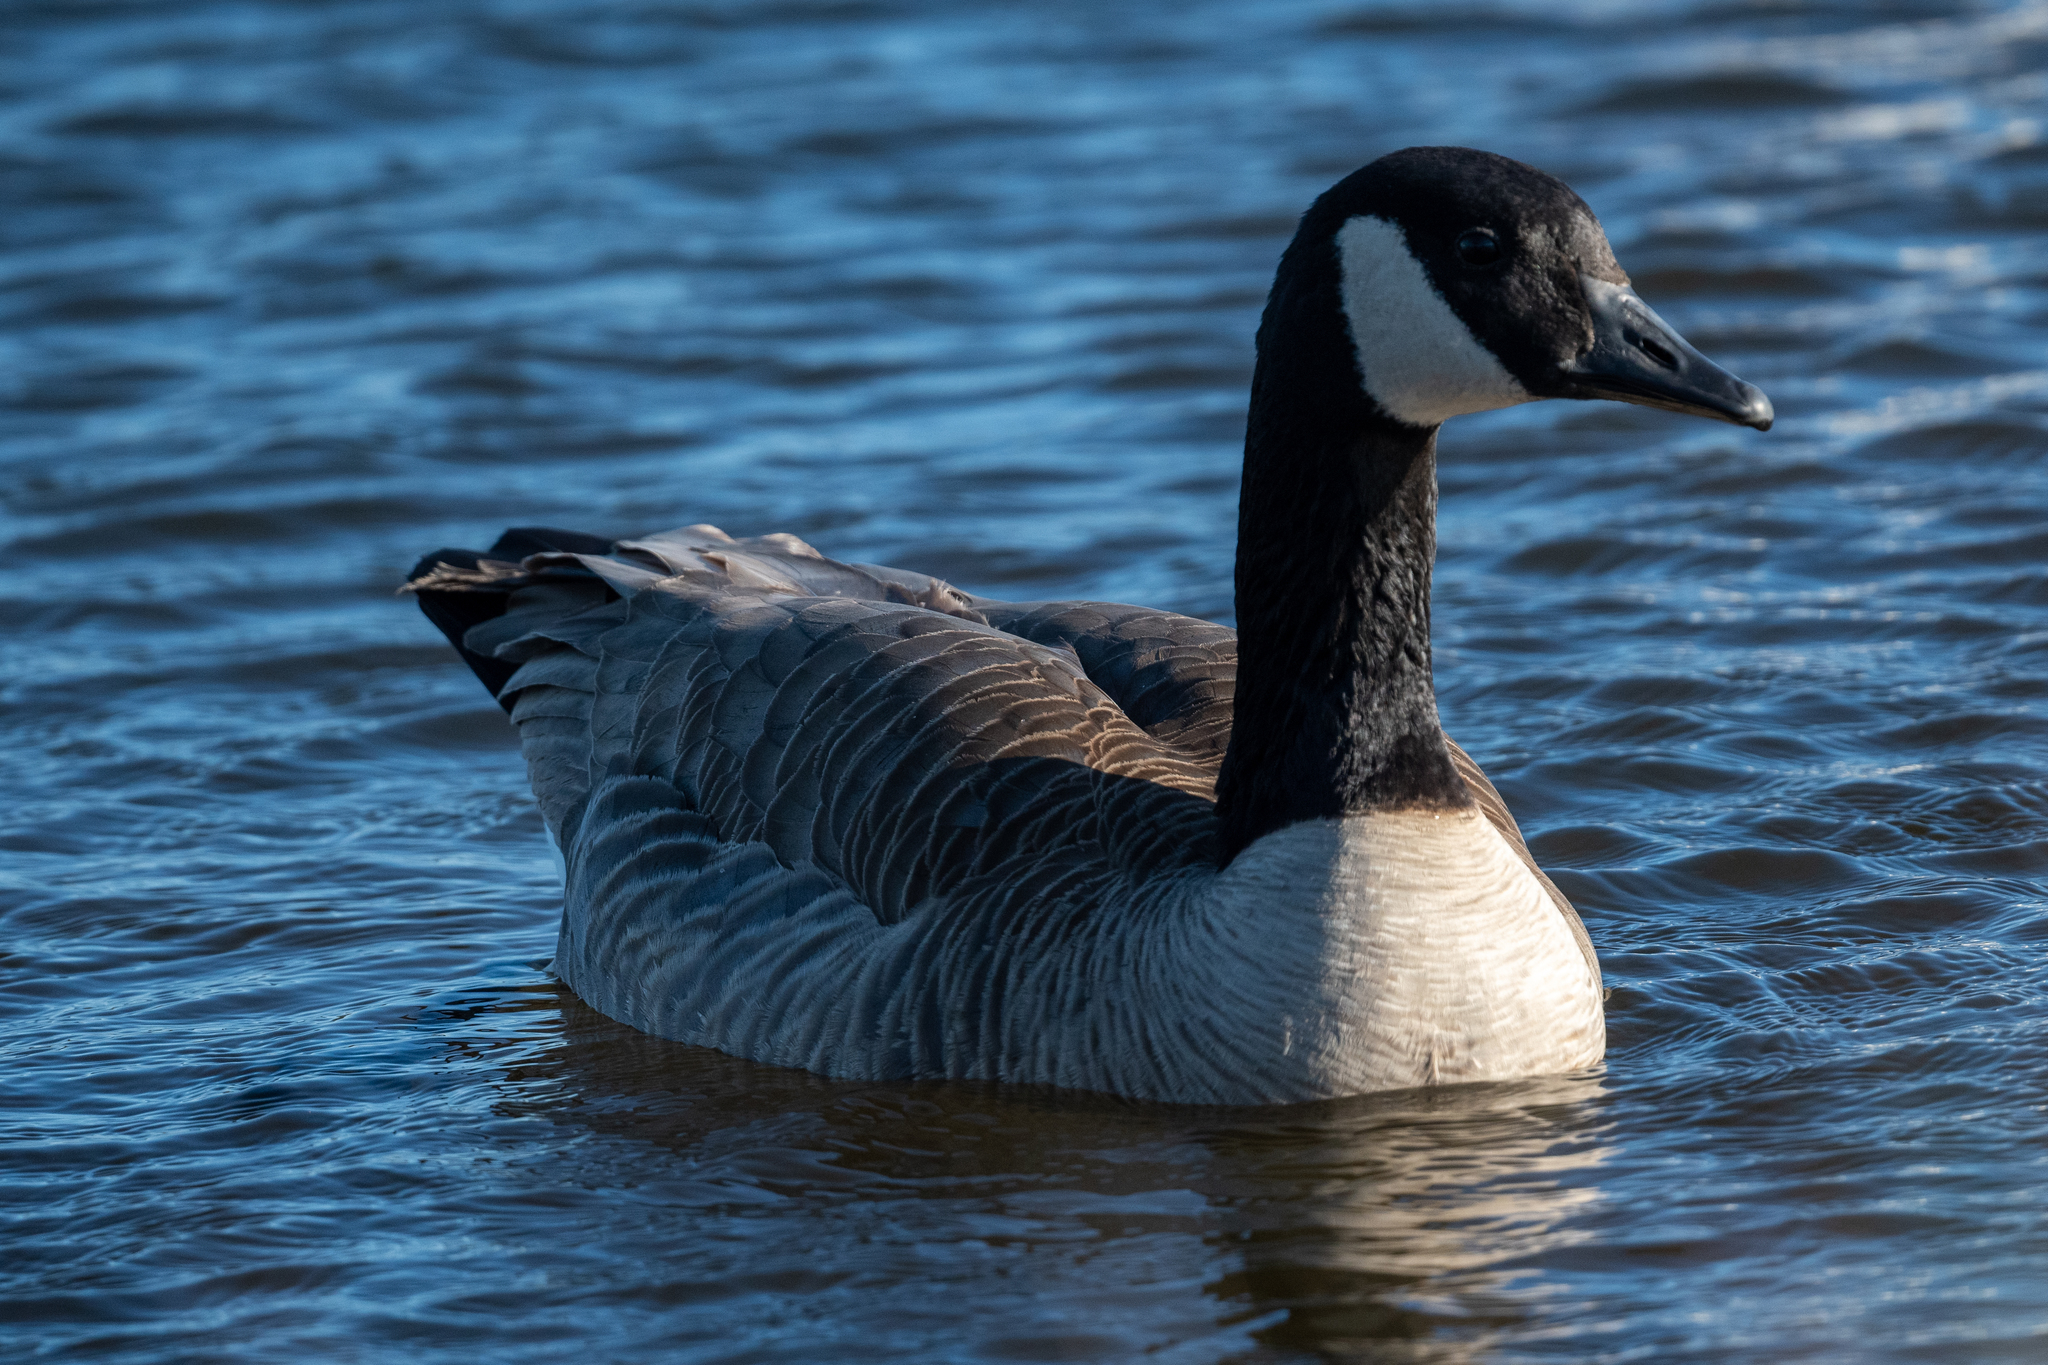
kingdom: Animalia
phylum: Chordata
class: Aves
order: Anseriformes
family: Anatidae
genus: Branta
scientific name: Branta canadensis
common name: Canada goose
